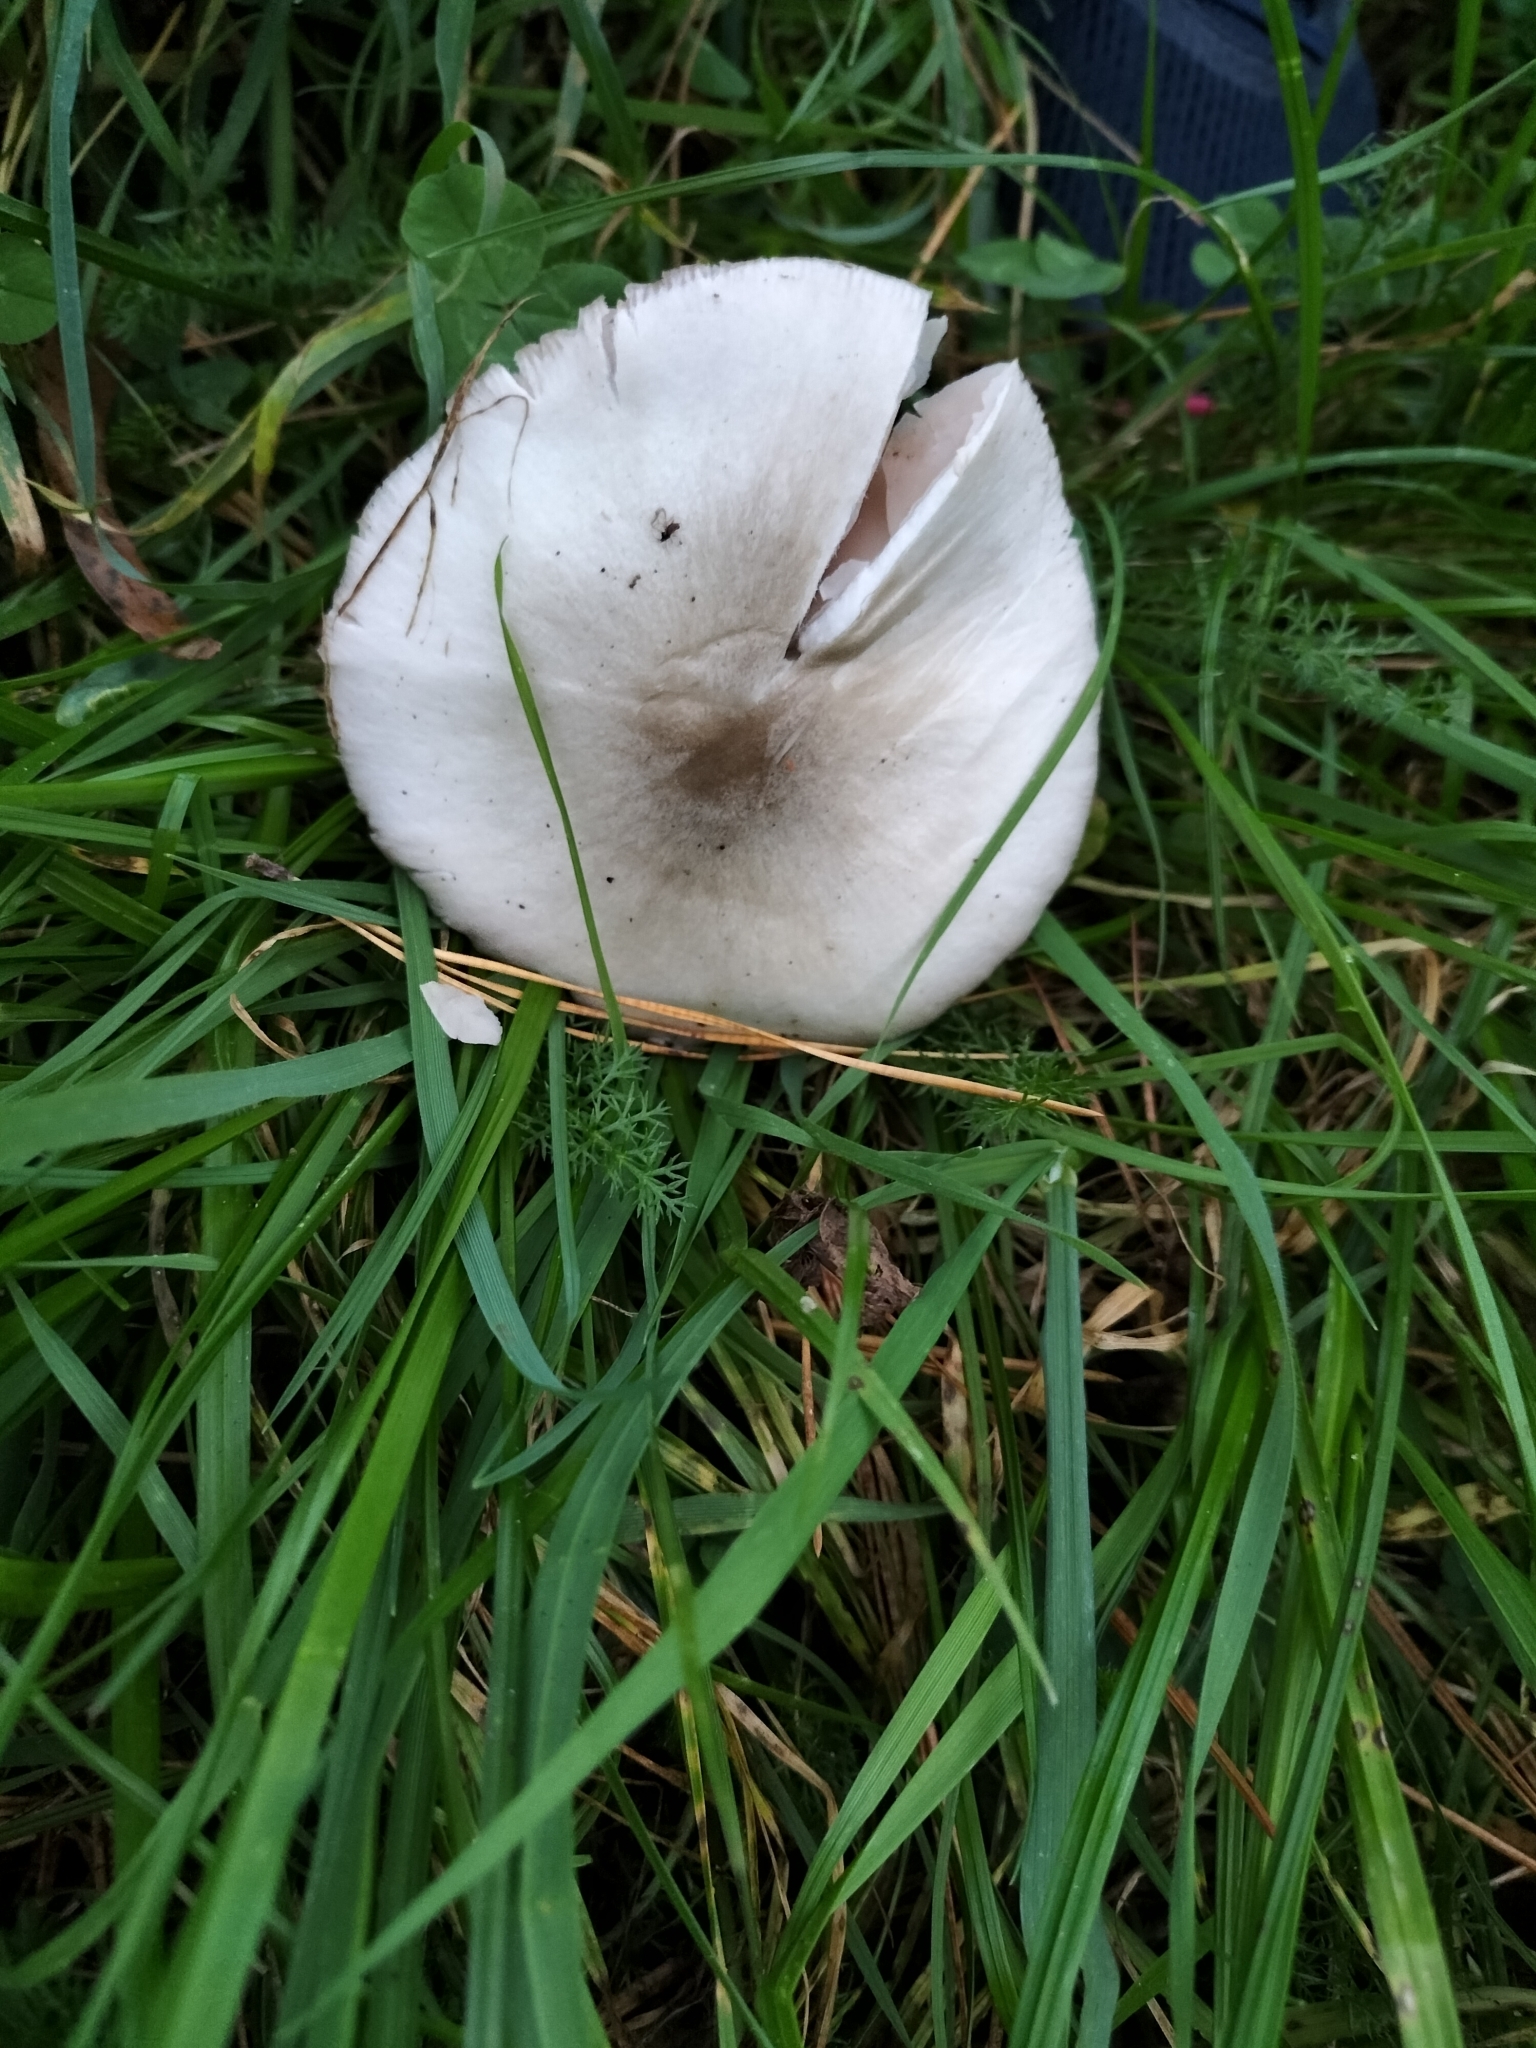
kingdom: Fungi
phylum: Basidiomycota
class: Agaricomycetes
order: Agaricales
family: Pluteaceae
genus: Volvopluteus
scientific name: Volvopluteus gloiocephalus
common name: Stubble rosegill
